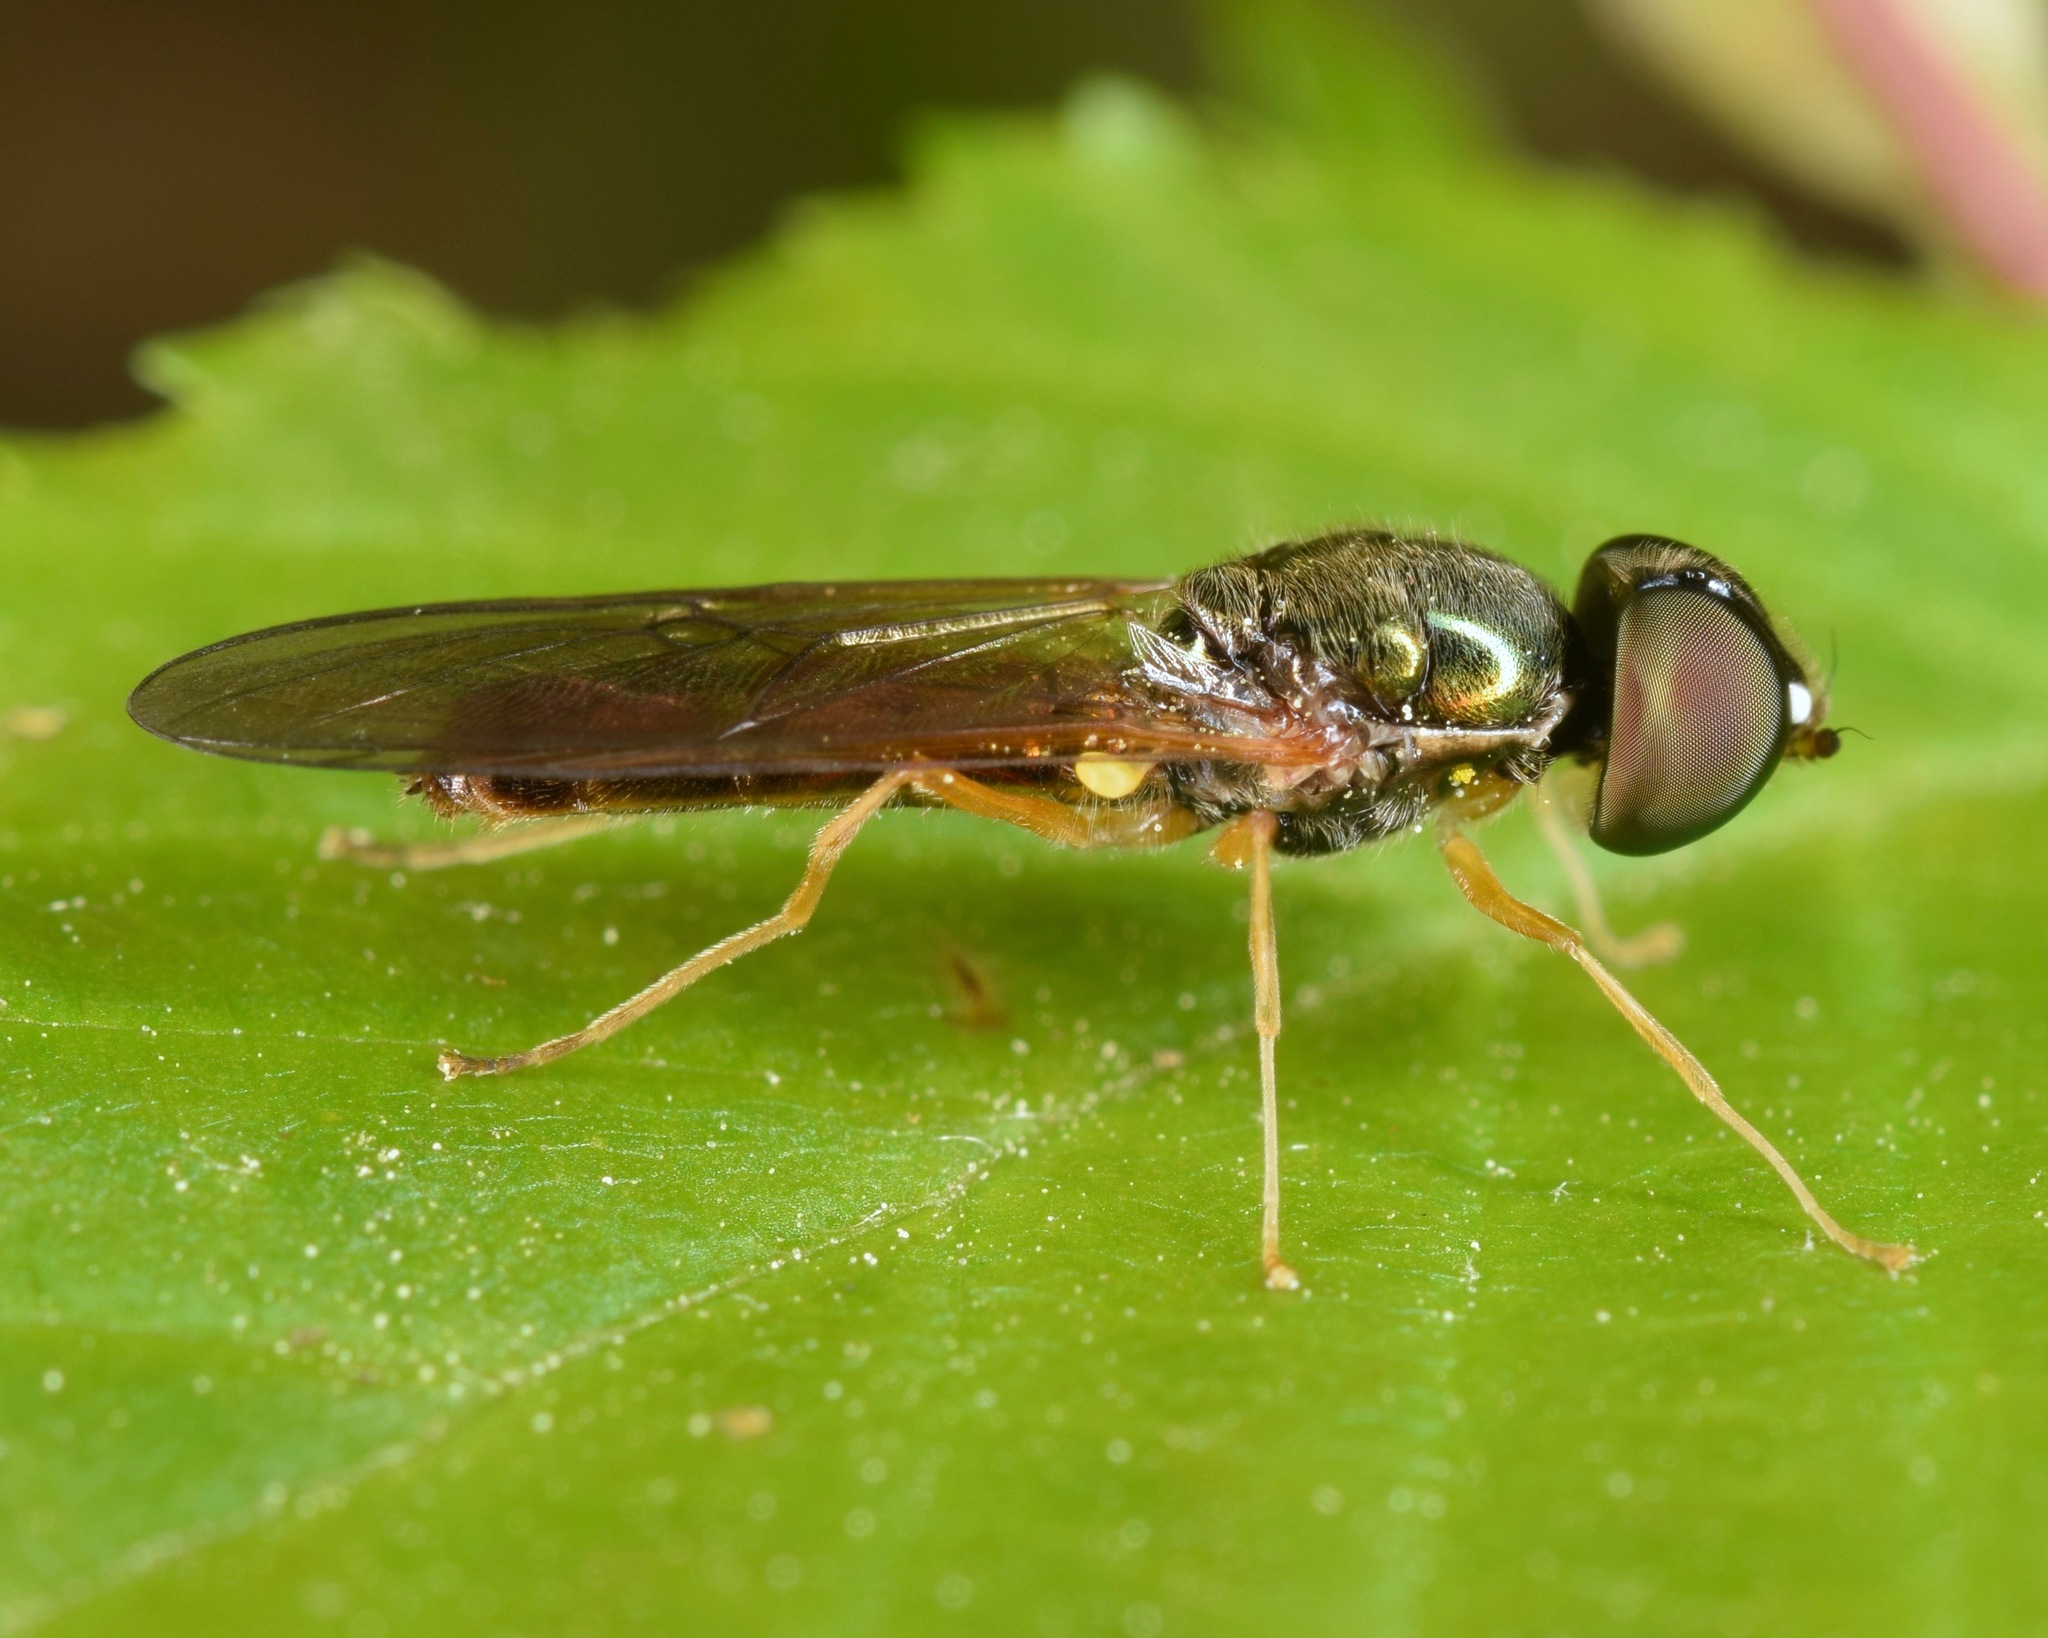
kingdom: Animalia
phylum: Arthropoda
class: Insecta
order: Diptera
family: Stratiomyidae
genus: Sargus
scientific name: Sargus decorus
